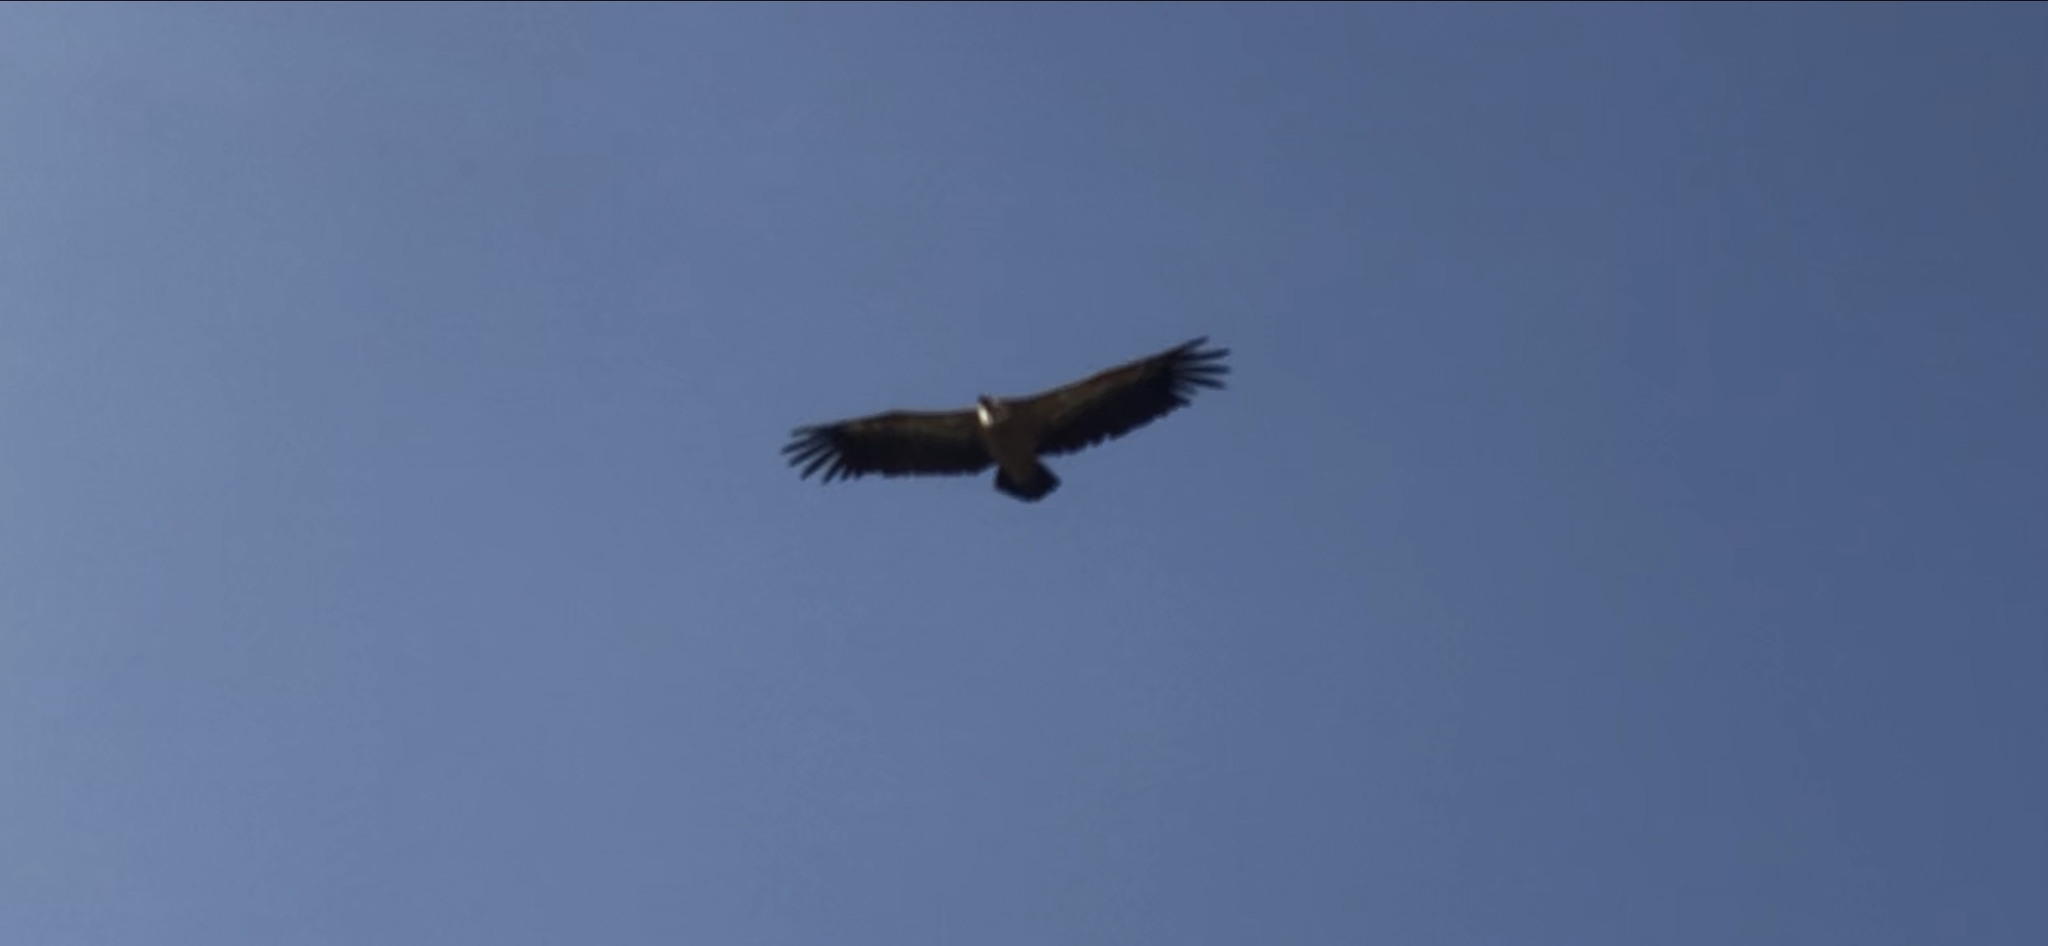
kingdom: Animalia
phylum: Chordata
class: Aves
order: Accipitriformes
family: Accipitridae
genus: Gyps
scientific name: Gyps fulvus
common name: Griffon vulture
